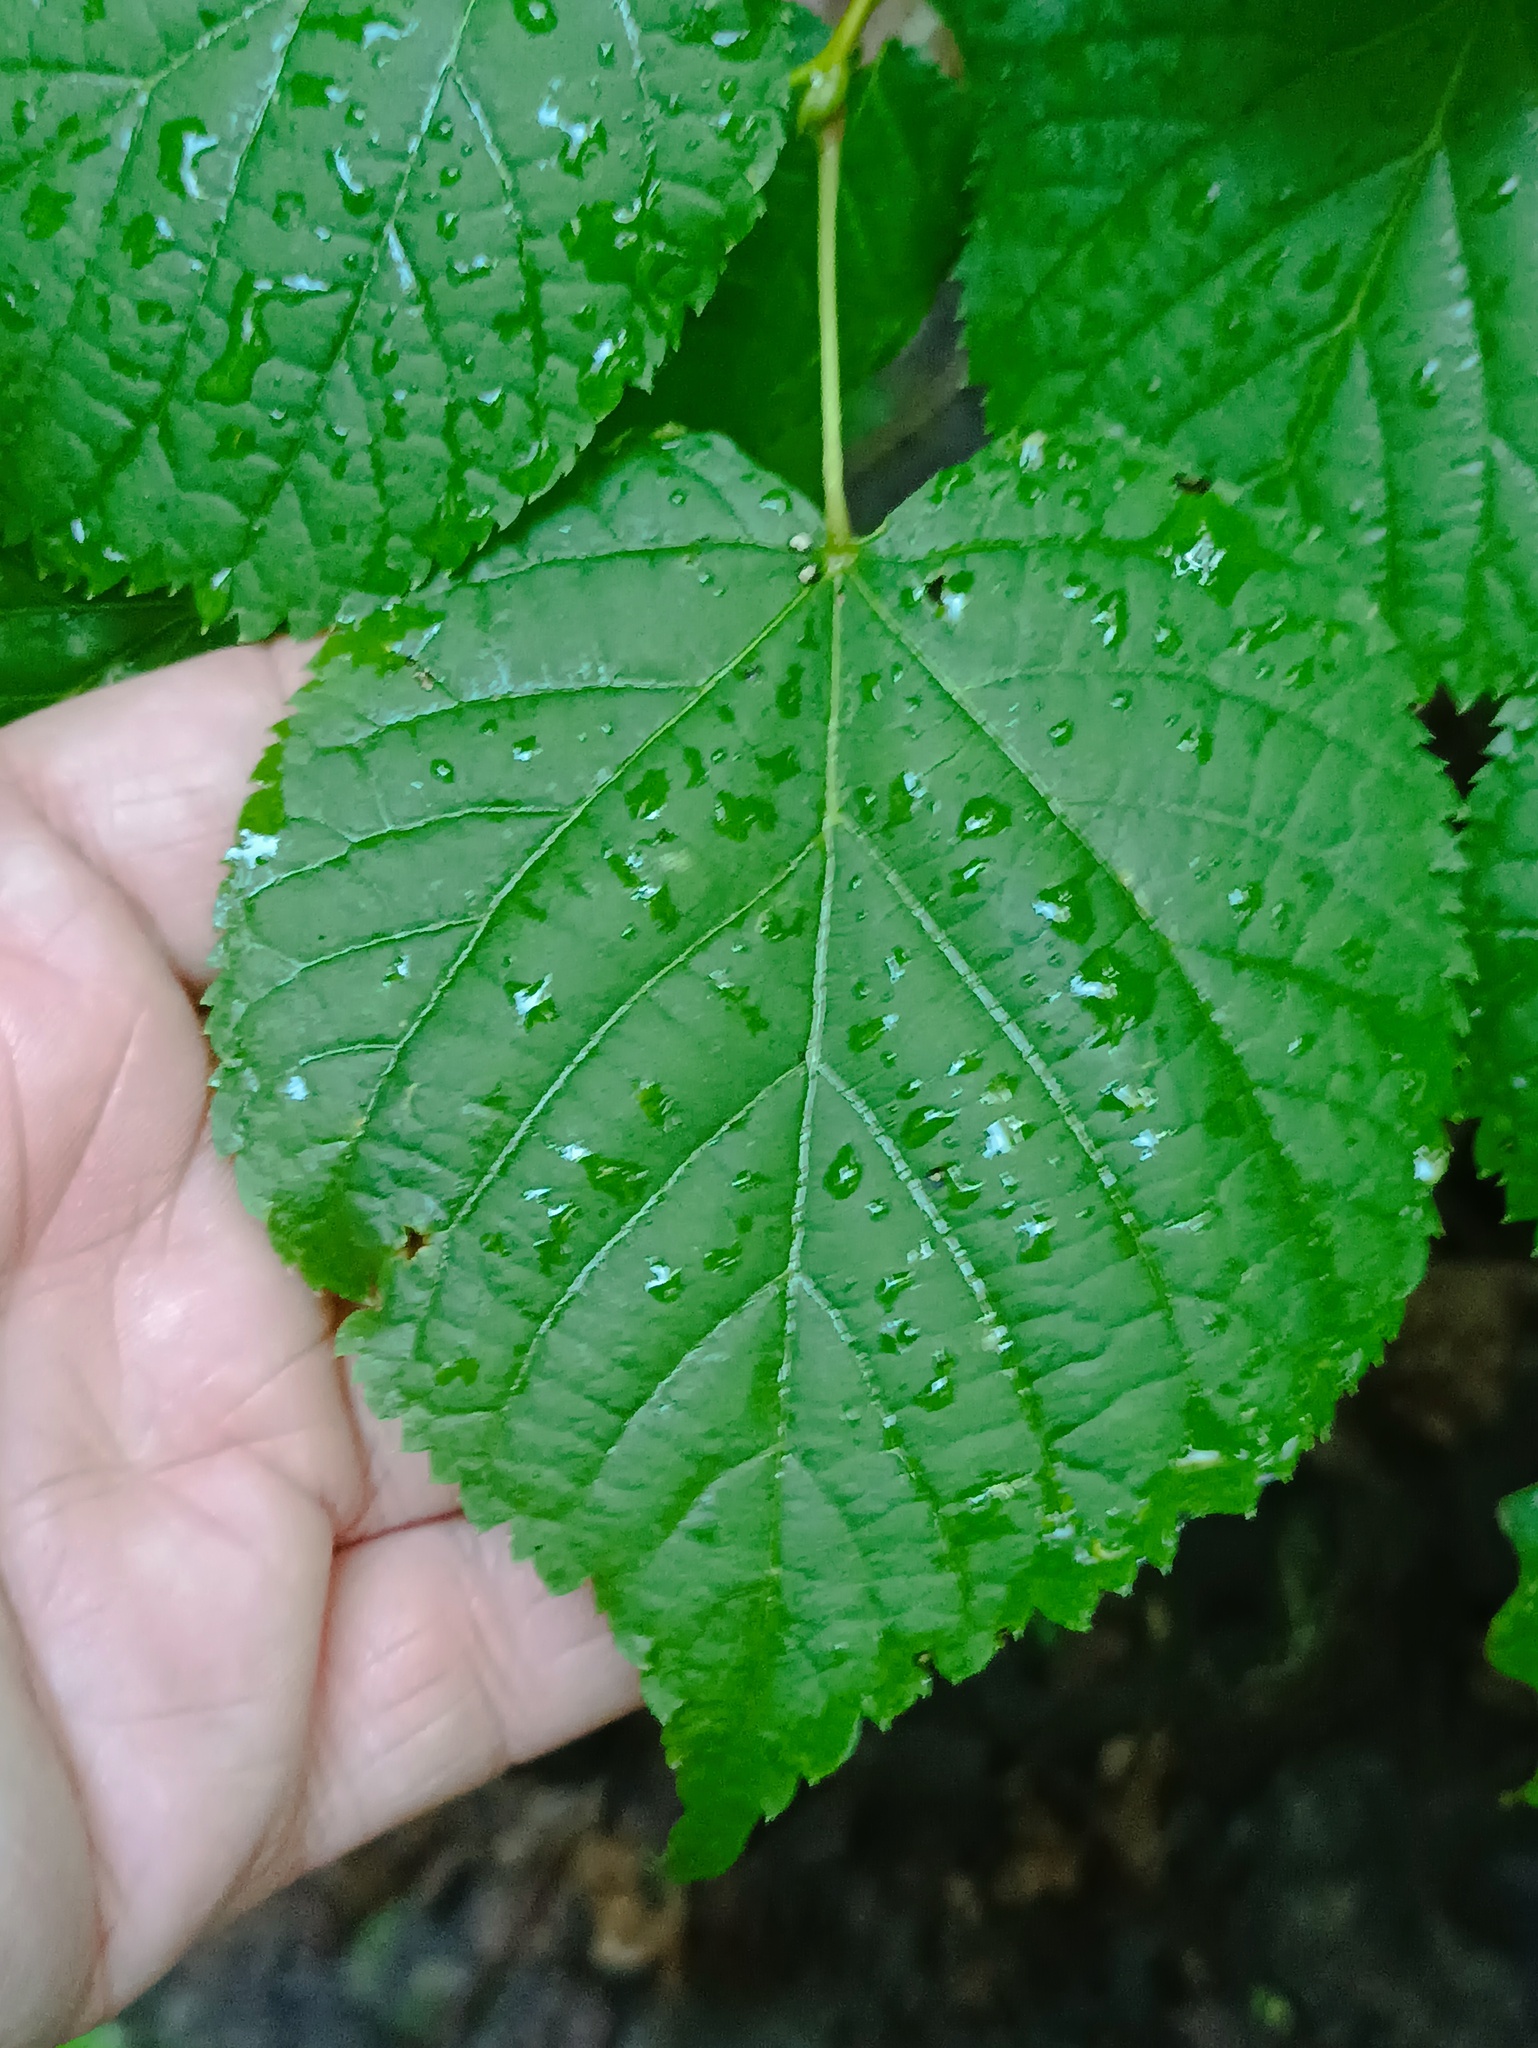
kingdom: Plantae
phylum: Tracheophyta
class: Magnoliopsida
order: Malvales
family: Malvaceae
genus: Tilia
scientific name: Tilia cordata
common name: Small-leaved lime
